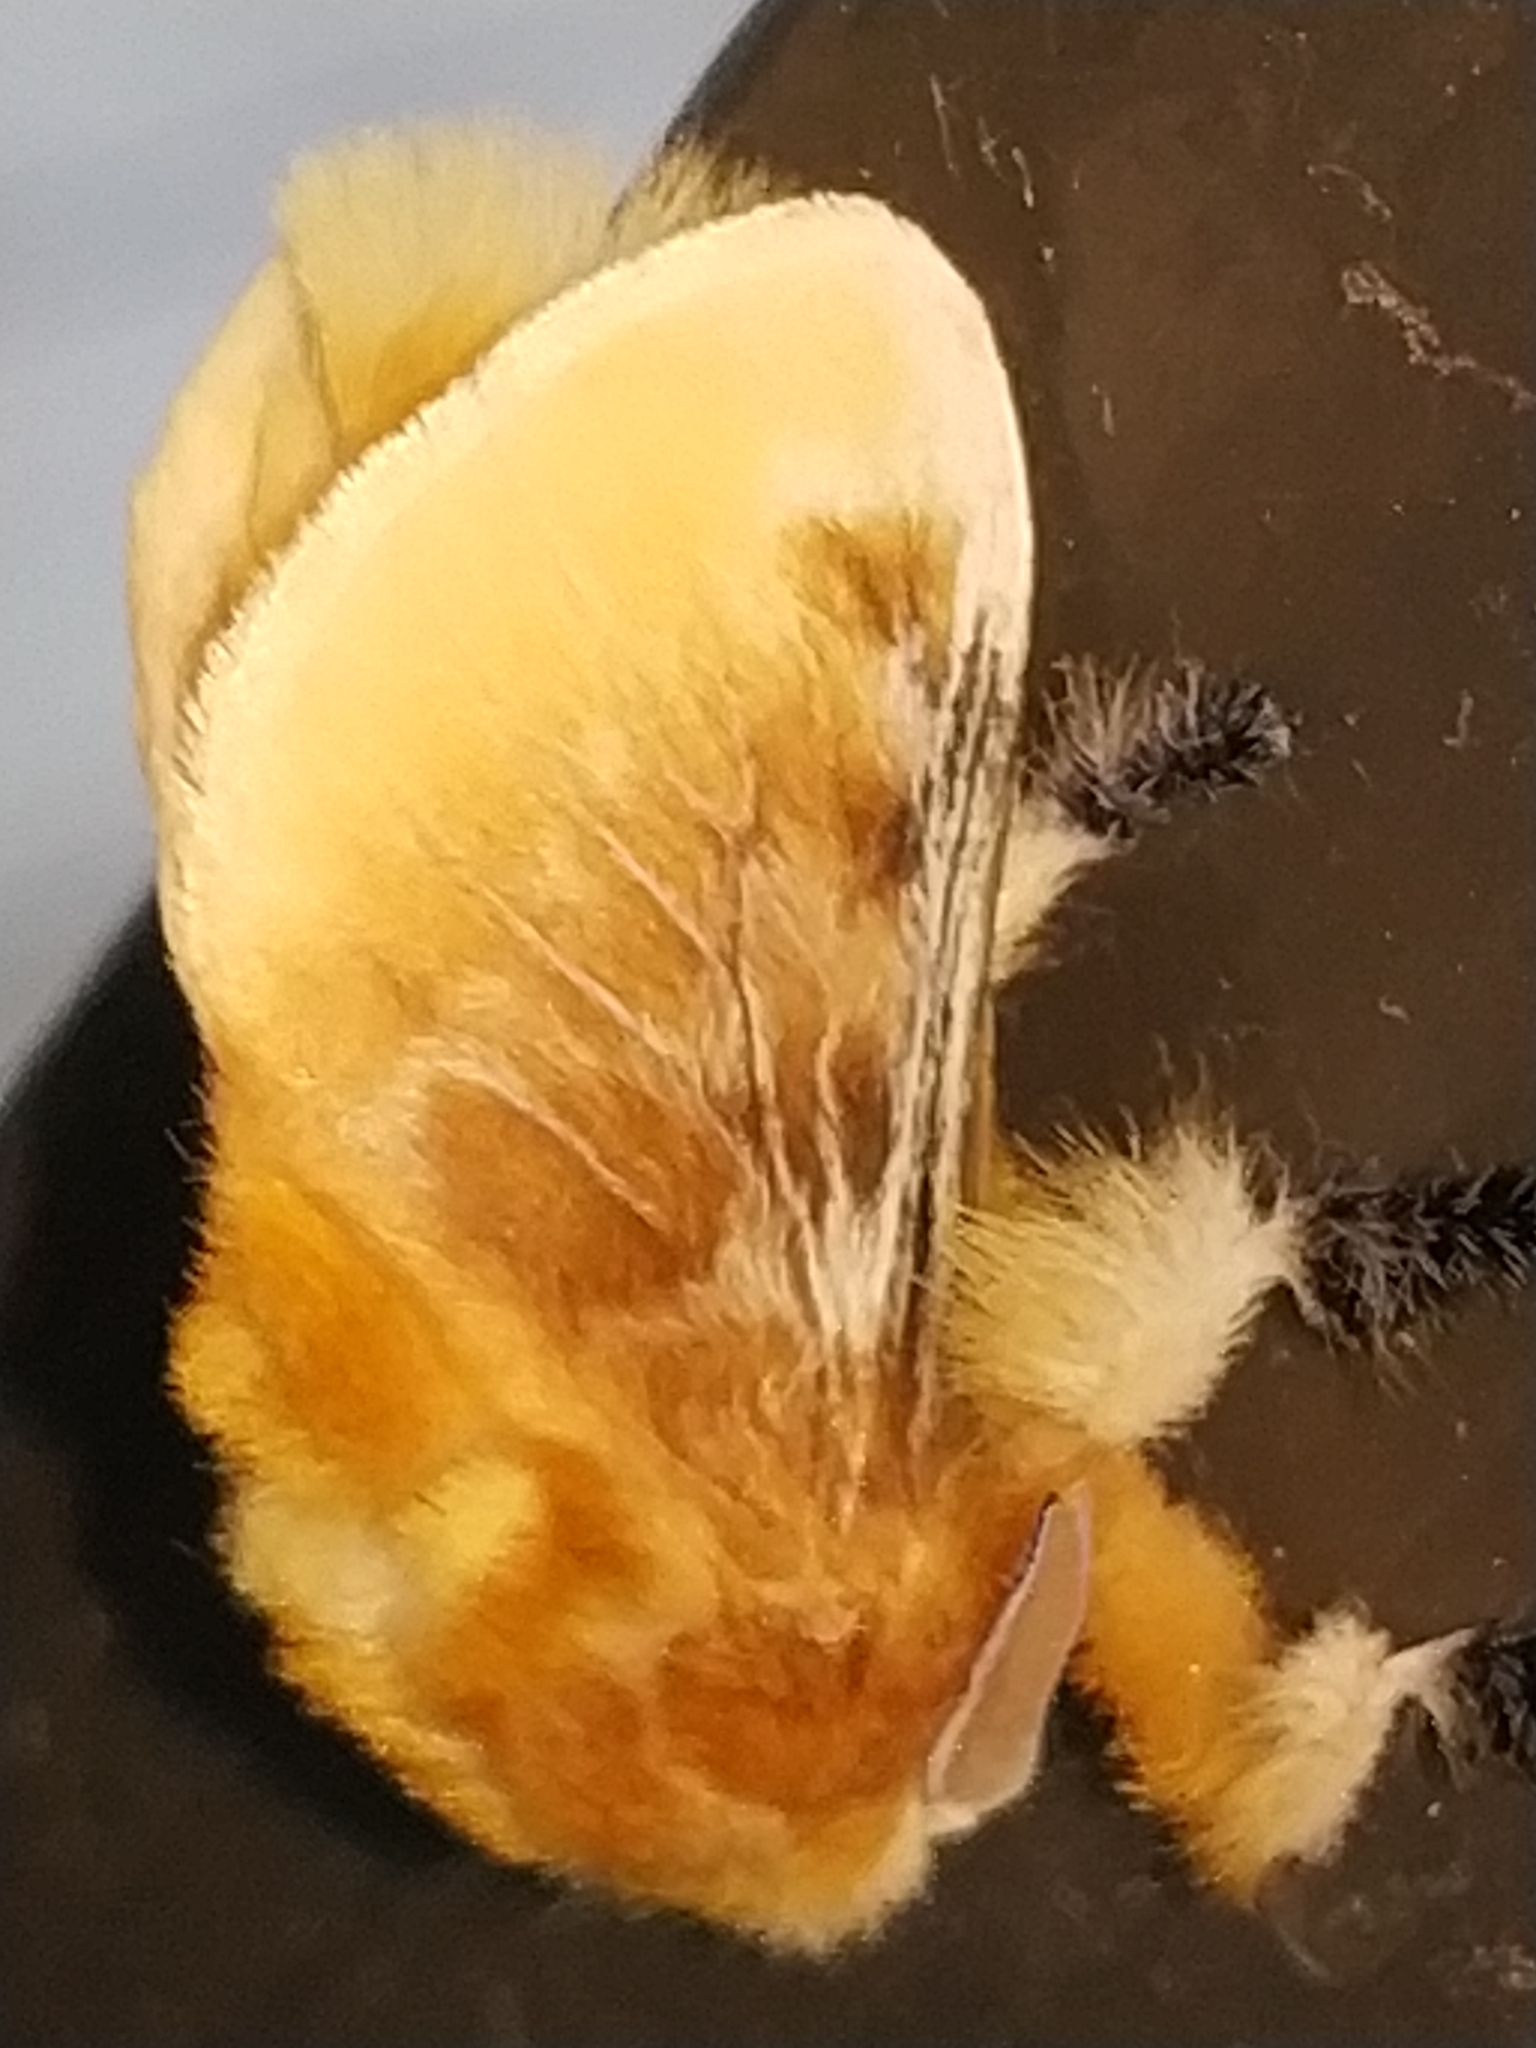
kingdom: Animalia
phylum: Arthropoda
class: Insecta
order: Lepidoptera
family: Megalopygidae
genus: Megalopyge
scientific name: Megalopyge opercularis
